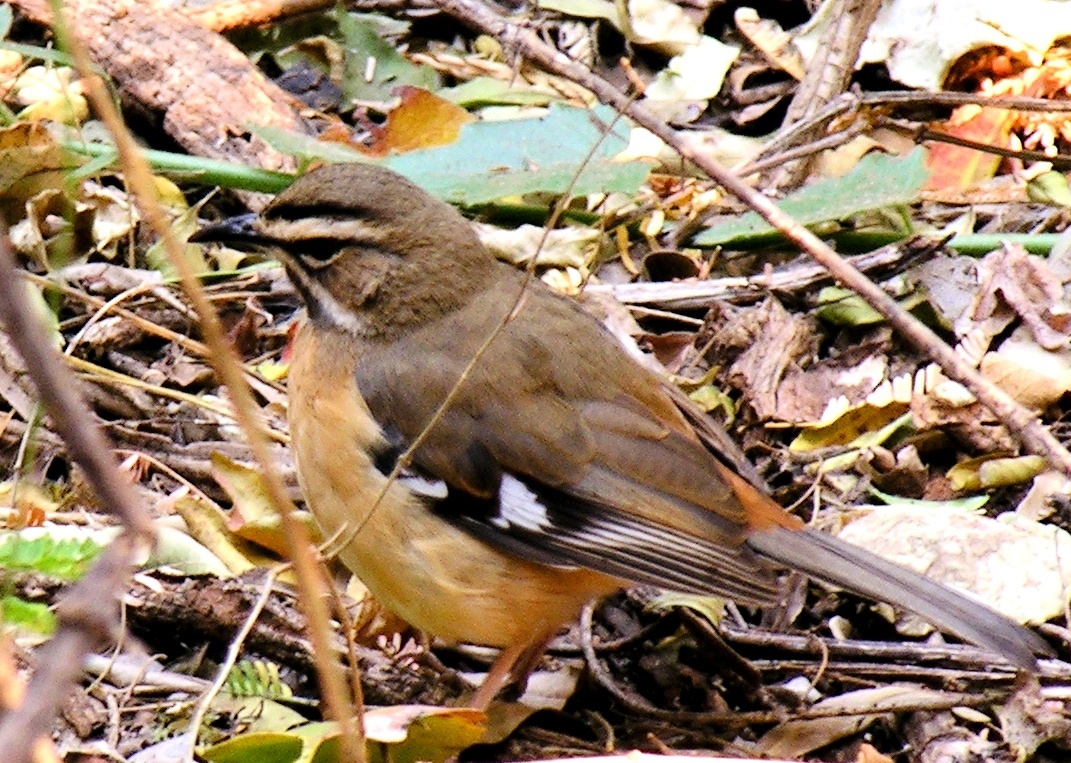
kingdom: Animalia
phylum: Chordata
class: Aves
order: Passeriformes
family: Muscicapidae
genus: Erythropygia
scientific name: Erythropygia quadrivirgata
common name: Bearded scrub robin
